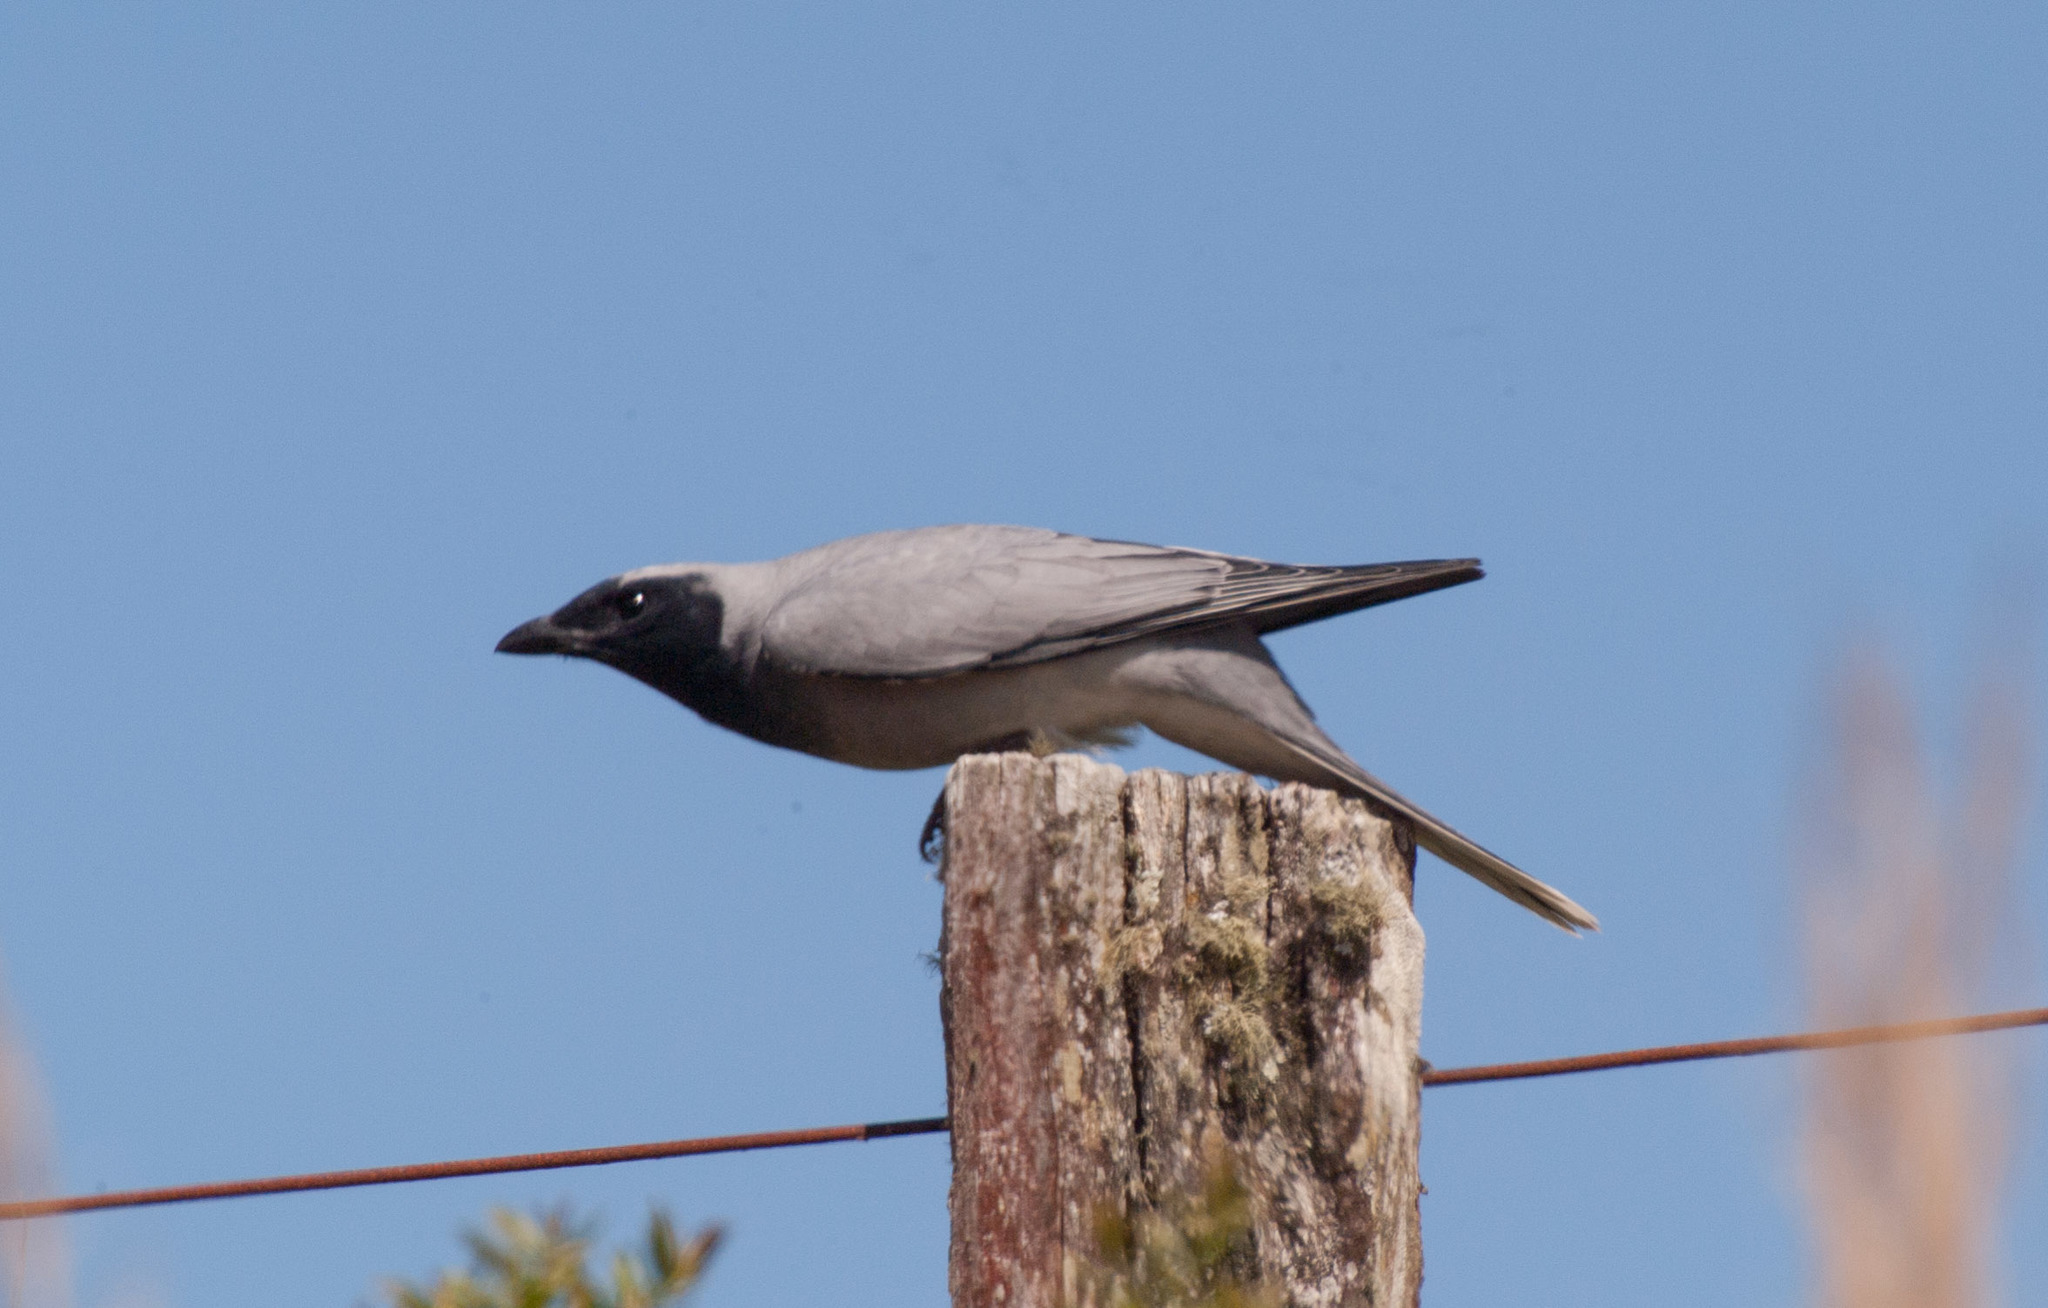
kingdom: Animalia
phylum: Chordata
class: Aves
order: Passeriformes
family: Campephagidae
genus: Coracina
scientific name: Coracina novaehollandiae
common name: Black-faced cuckooshrike
